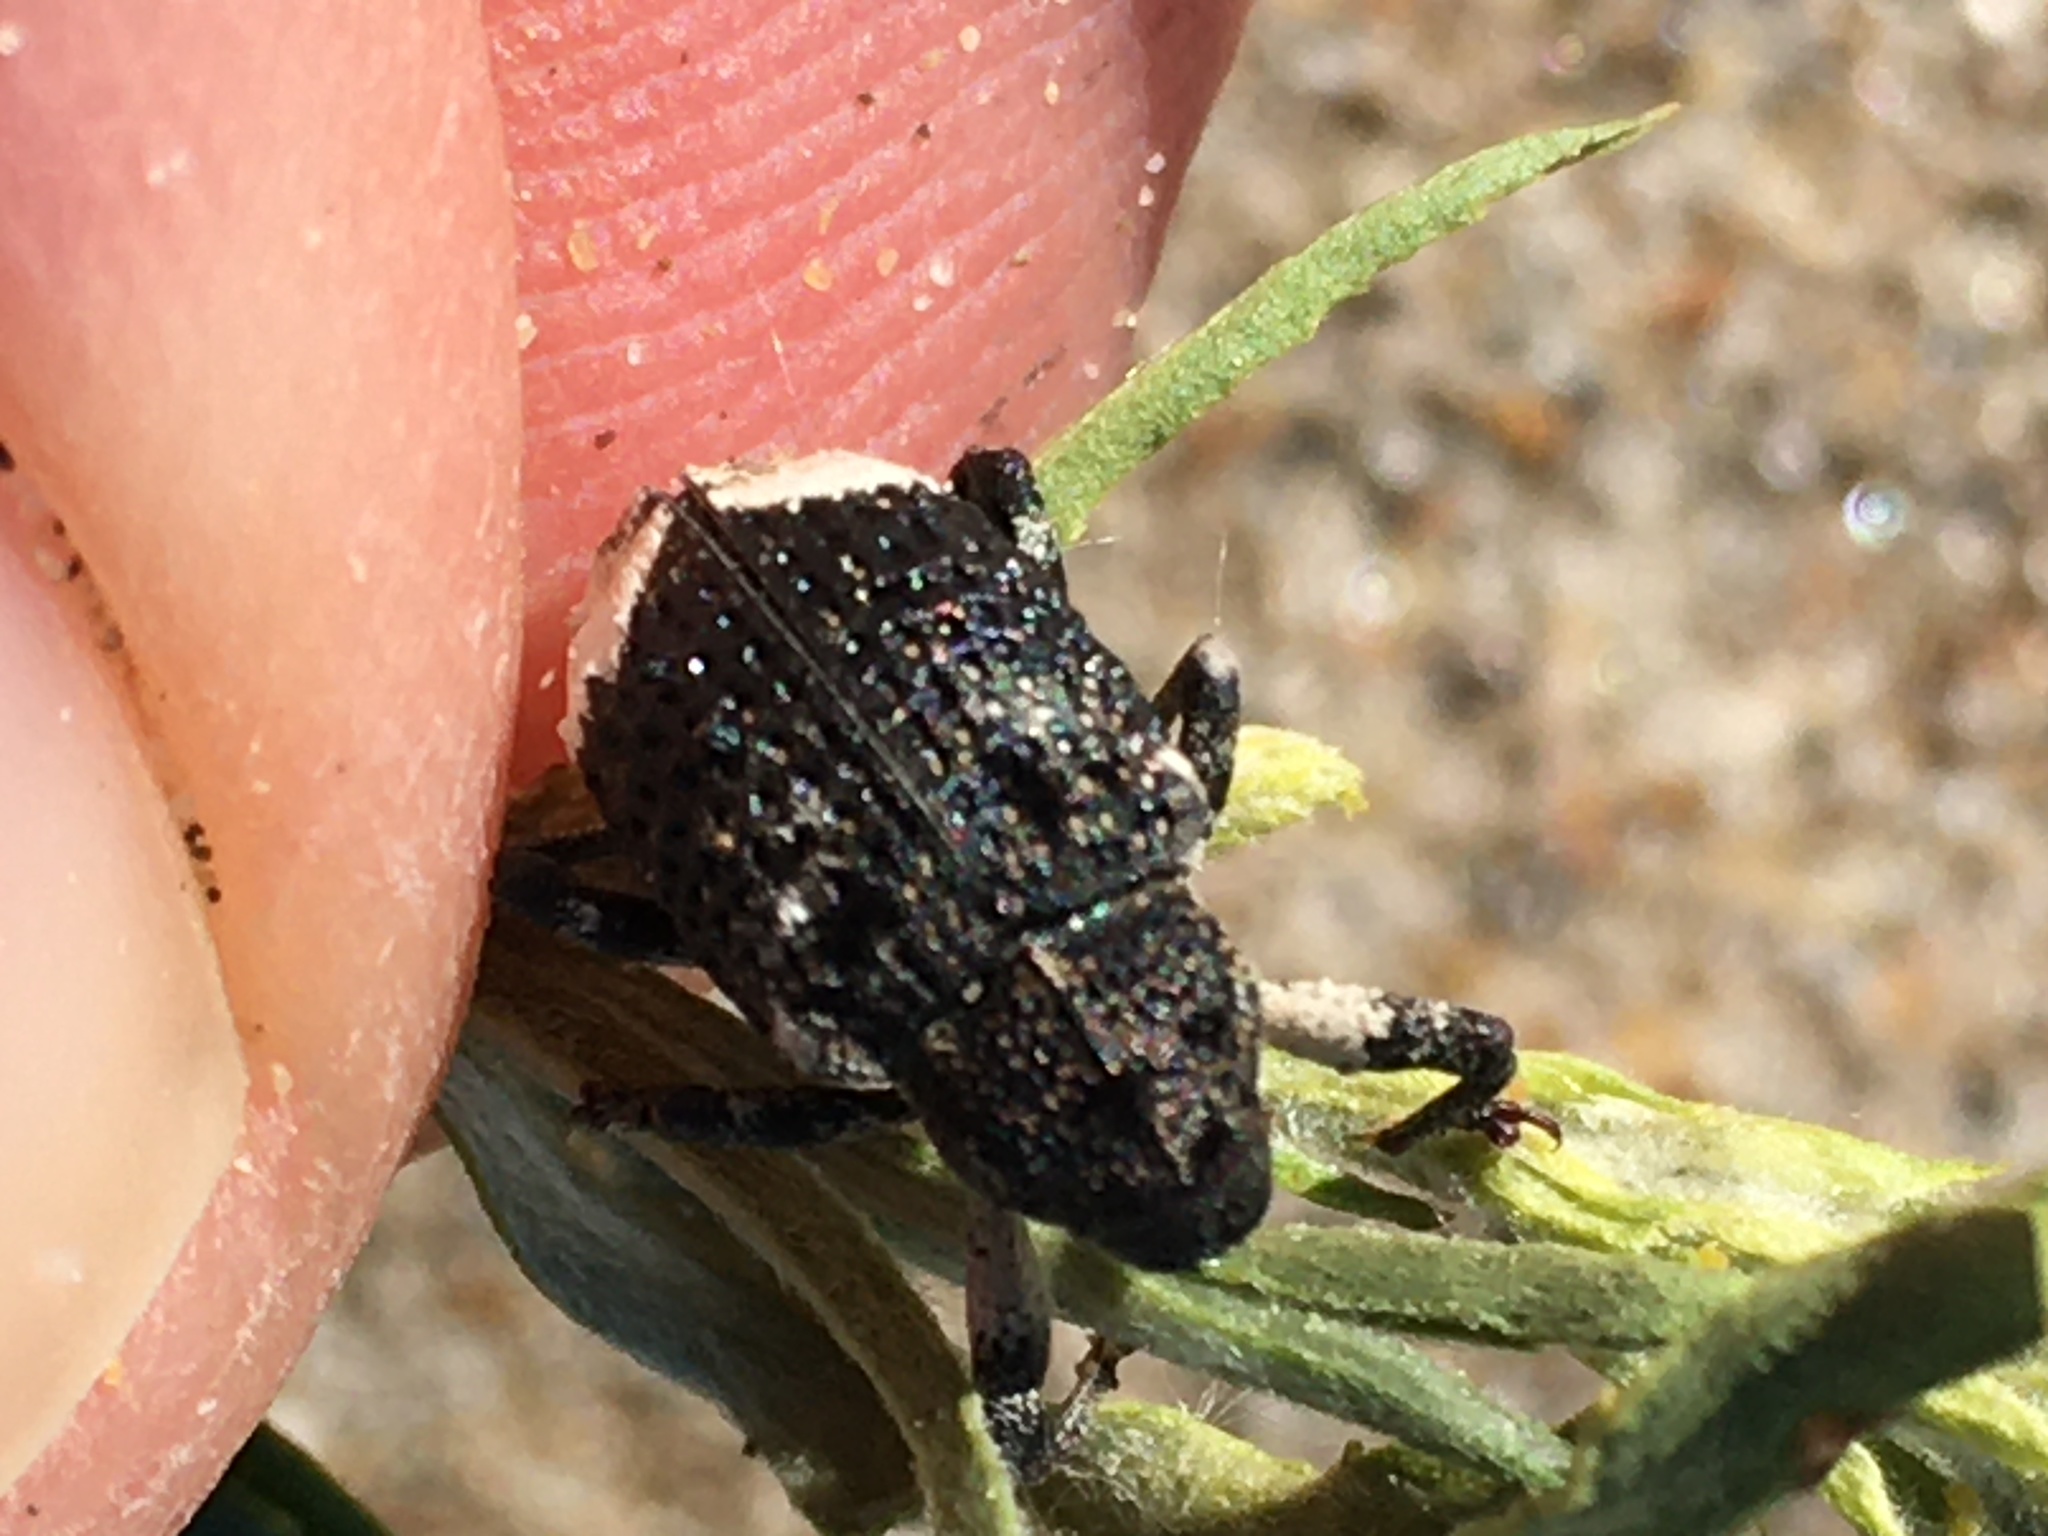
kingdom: Animalia
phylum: Arthropoda
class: Insecta
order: Coleoptera
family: Curculionidae
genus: Cryptorhynchus
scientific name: Cryptorhynchus lapathi
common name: Weevil
